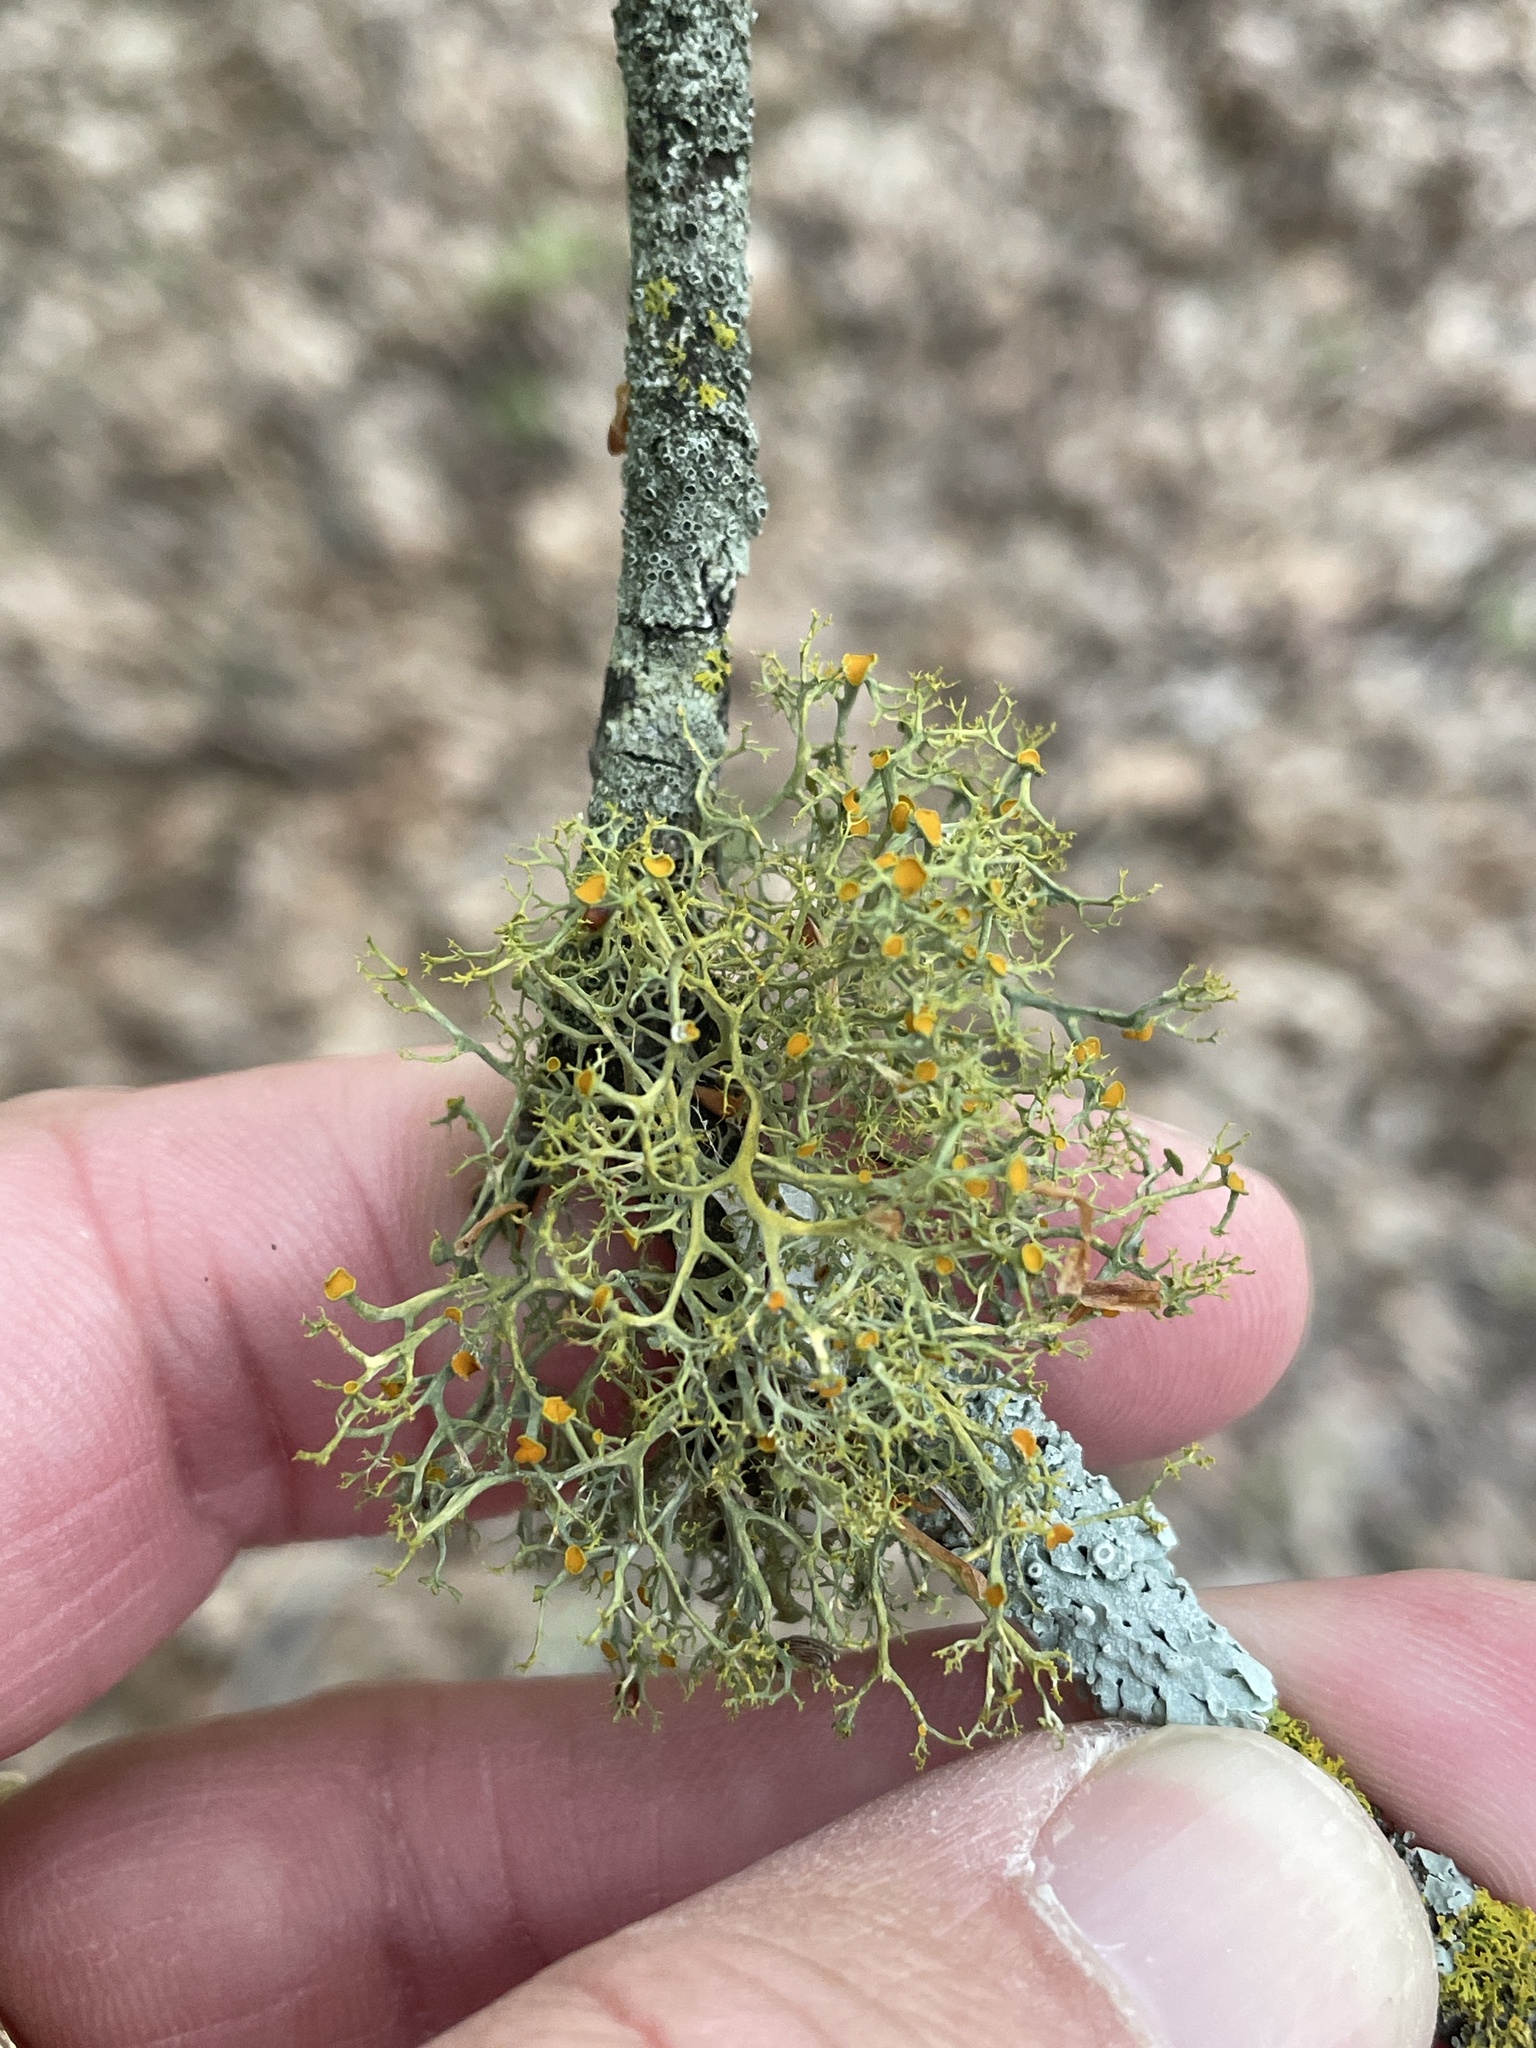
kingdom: Fungi
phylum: Ascomycota
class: Lecanoromycetes
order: Teloschistales
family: Teloschistaceae
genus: Teloschistes
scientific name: Teloschistes exilis
